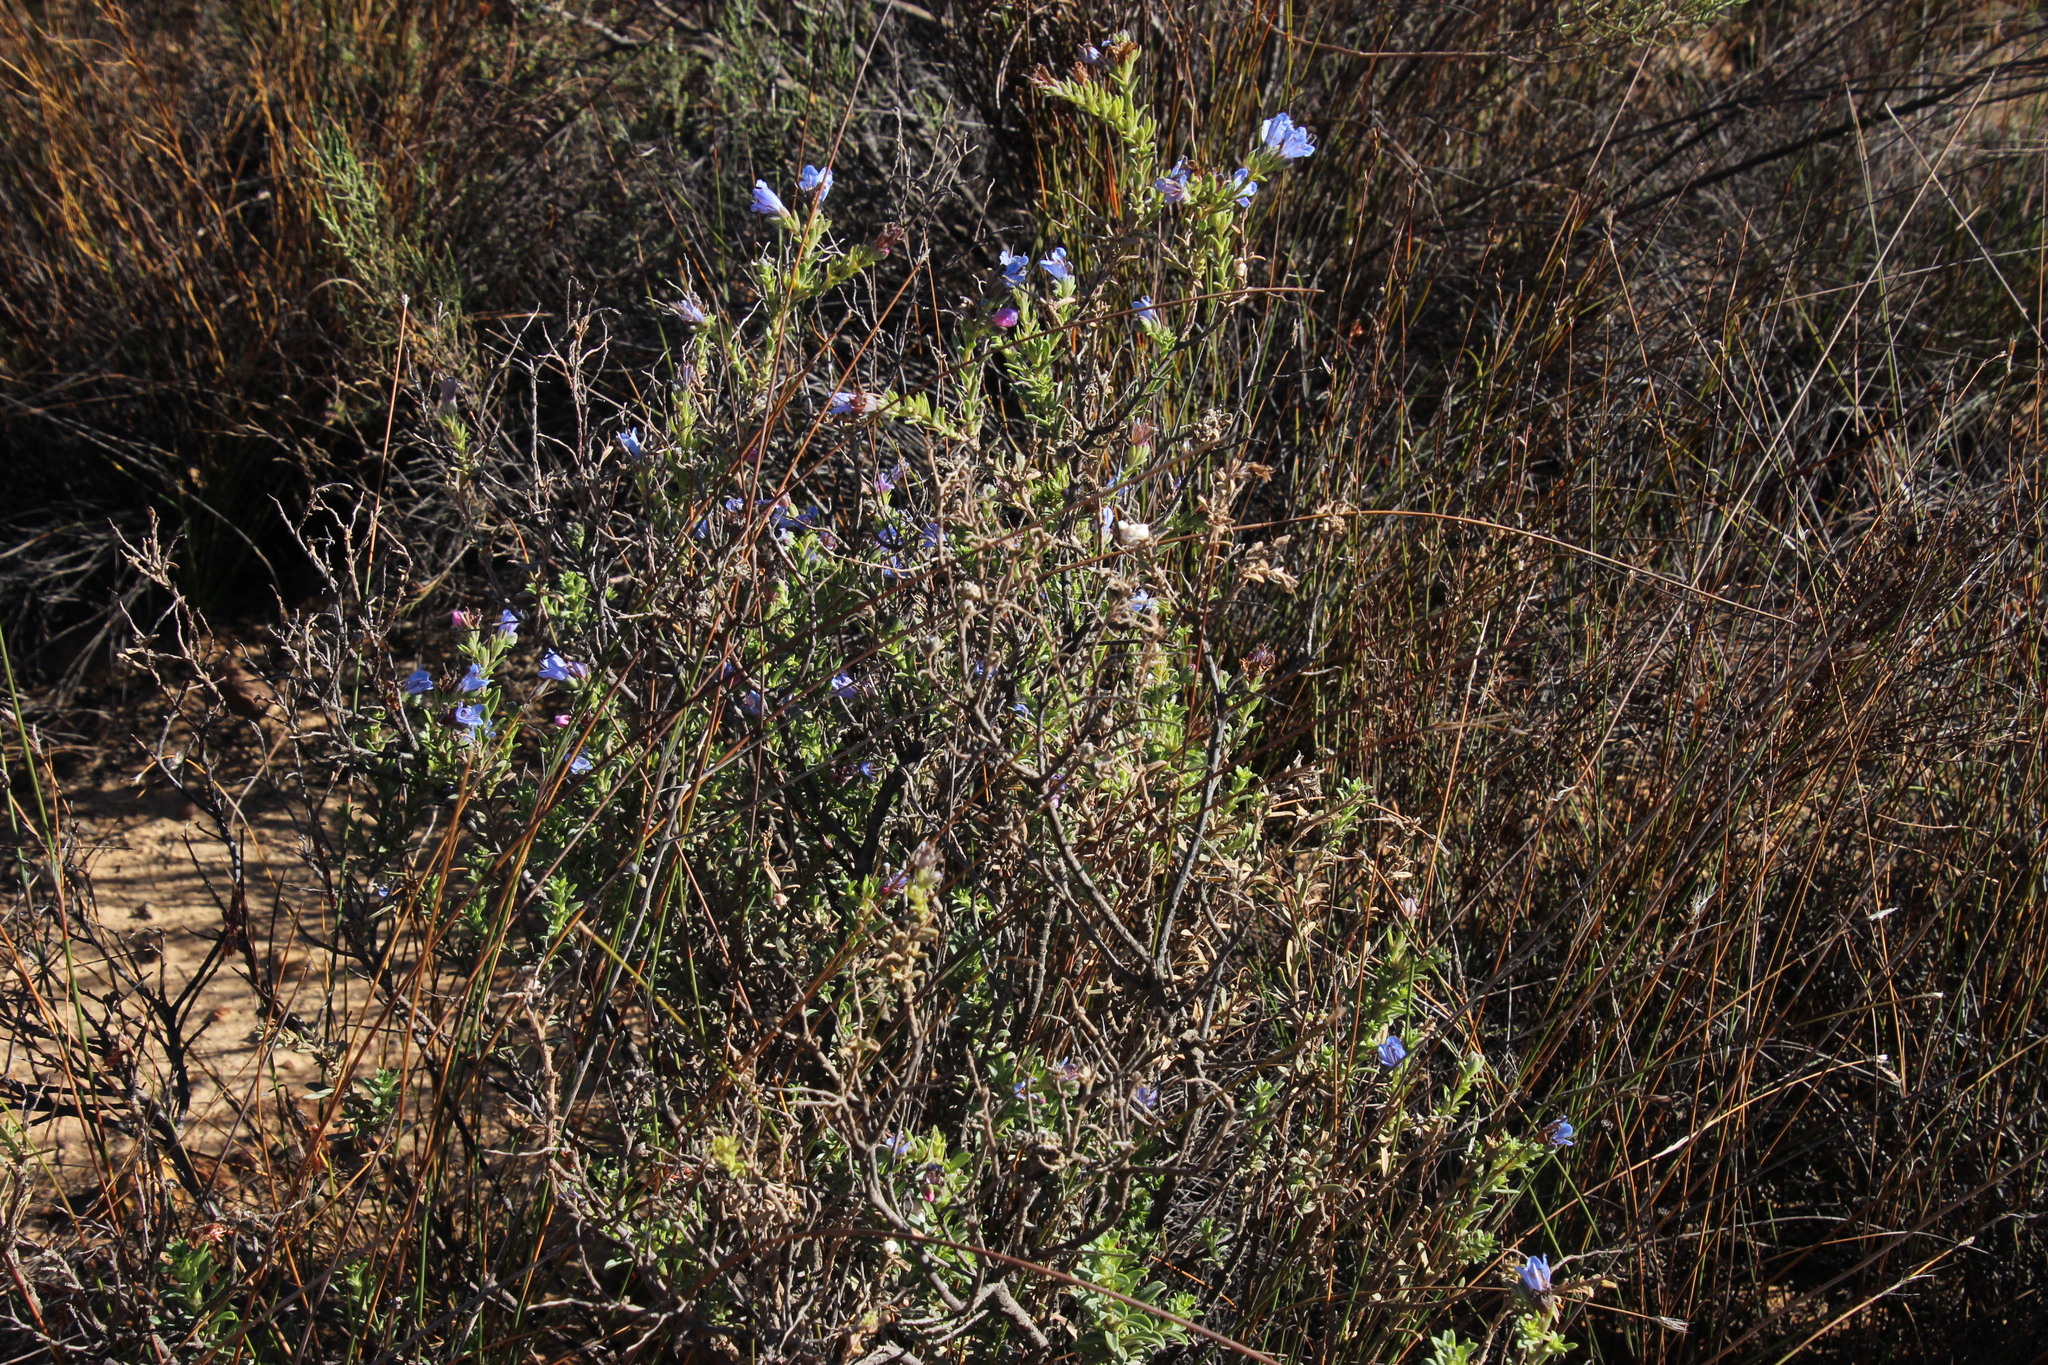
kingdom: Plantae
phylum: Tracheophyta
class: Magnoliopsida
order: Boraginales
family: Boraginaceae
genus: Lobostemon
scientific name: Lobostemon trichotomus
